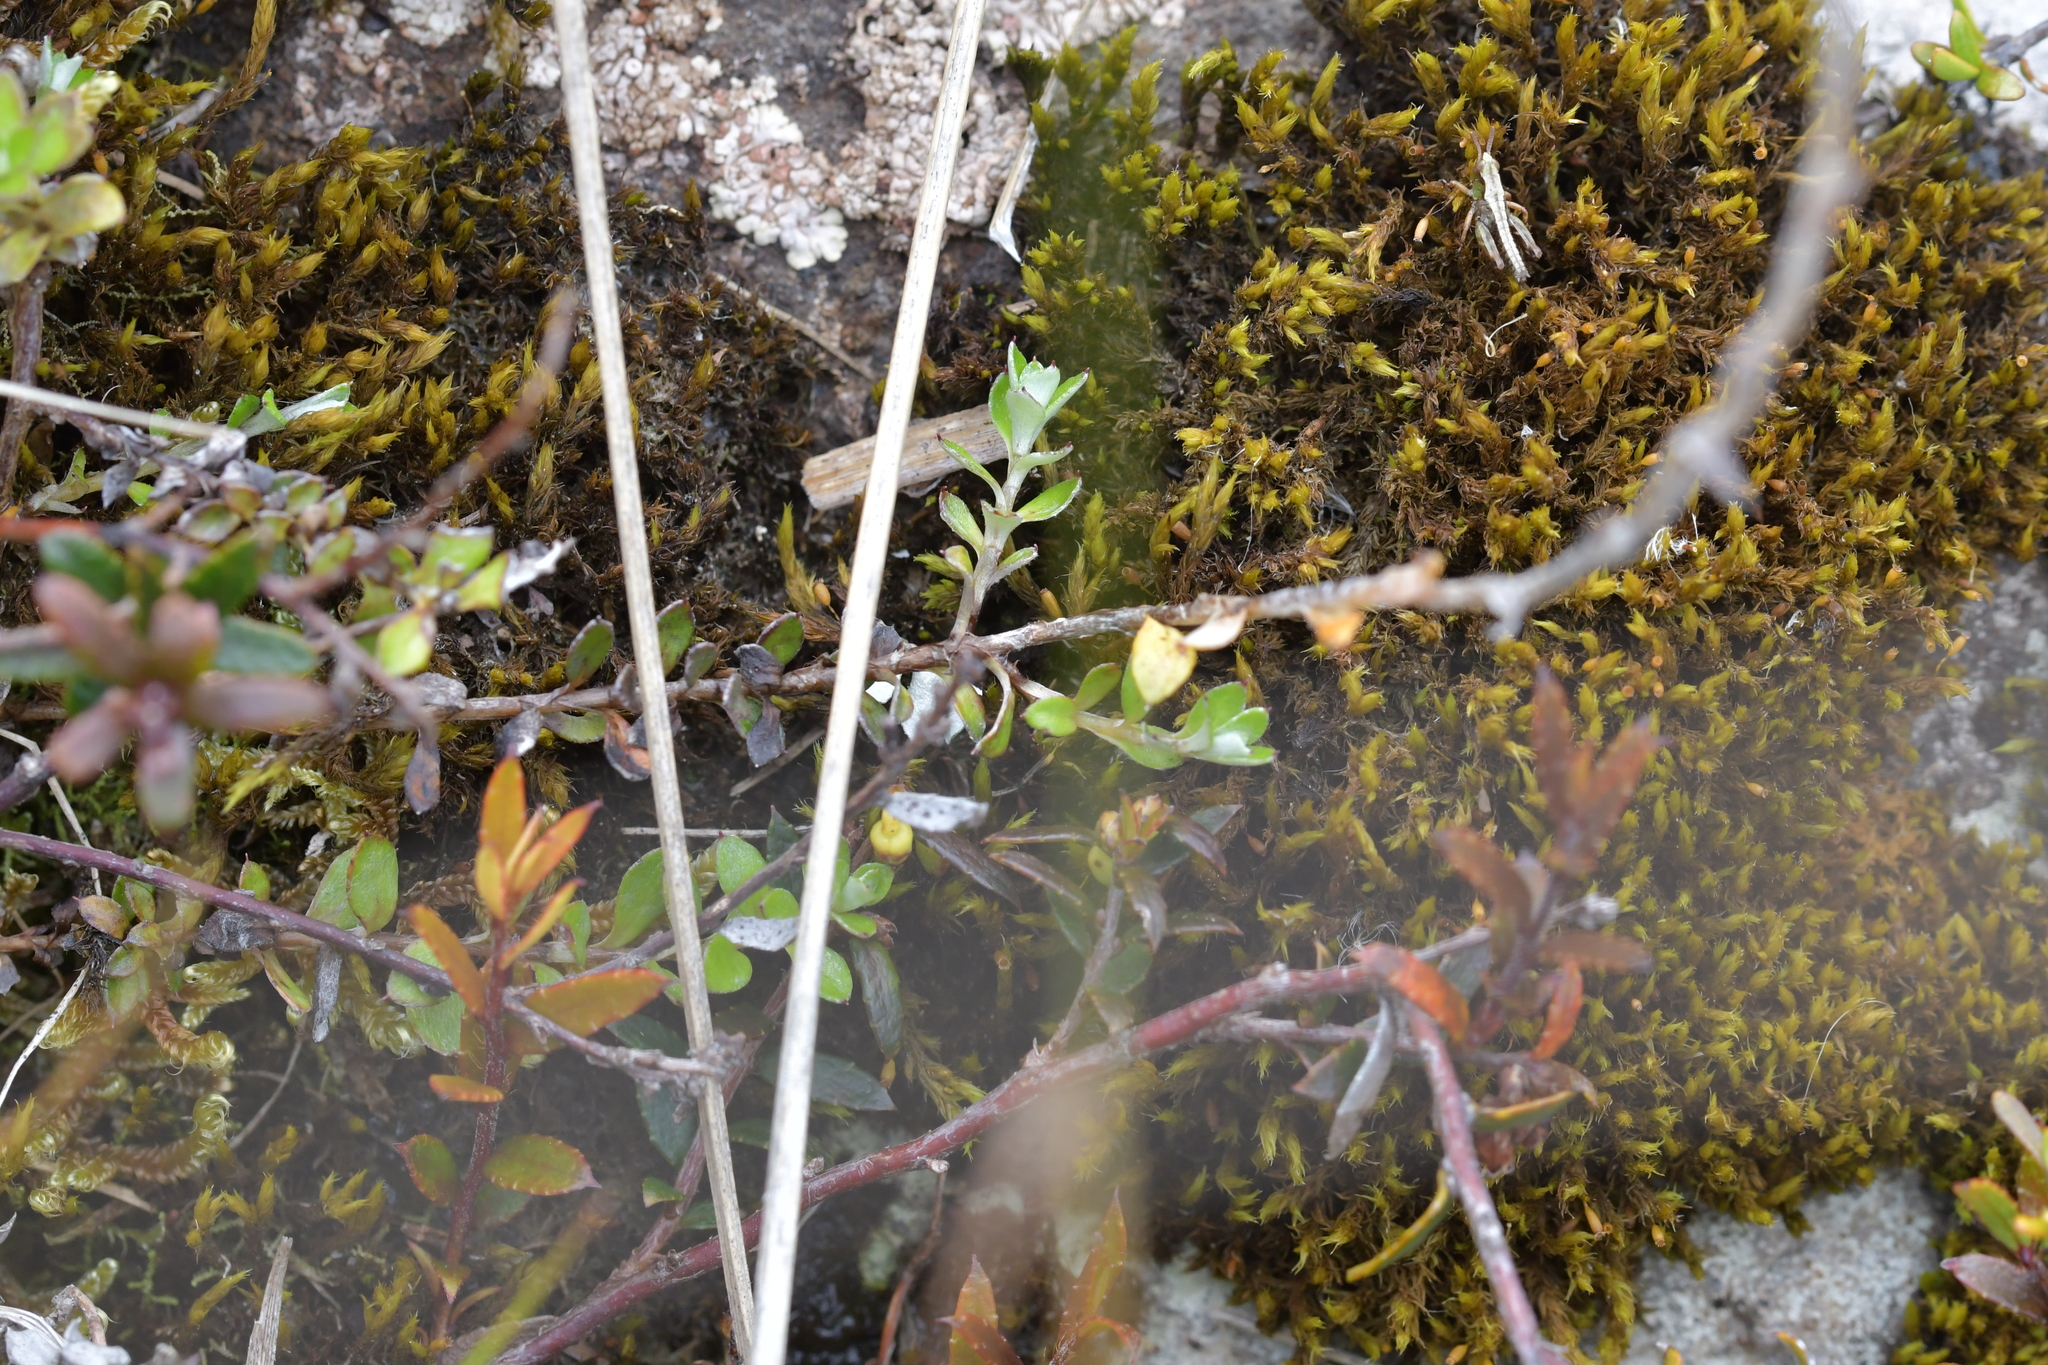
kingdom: Plantae
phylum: Tracheophyta
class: Magnoliopsida
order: Asterales
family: Asteraceae
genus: Anaphalioides
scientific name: Anaphalioides bellidioides
